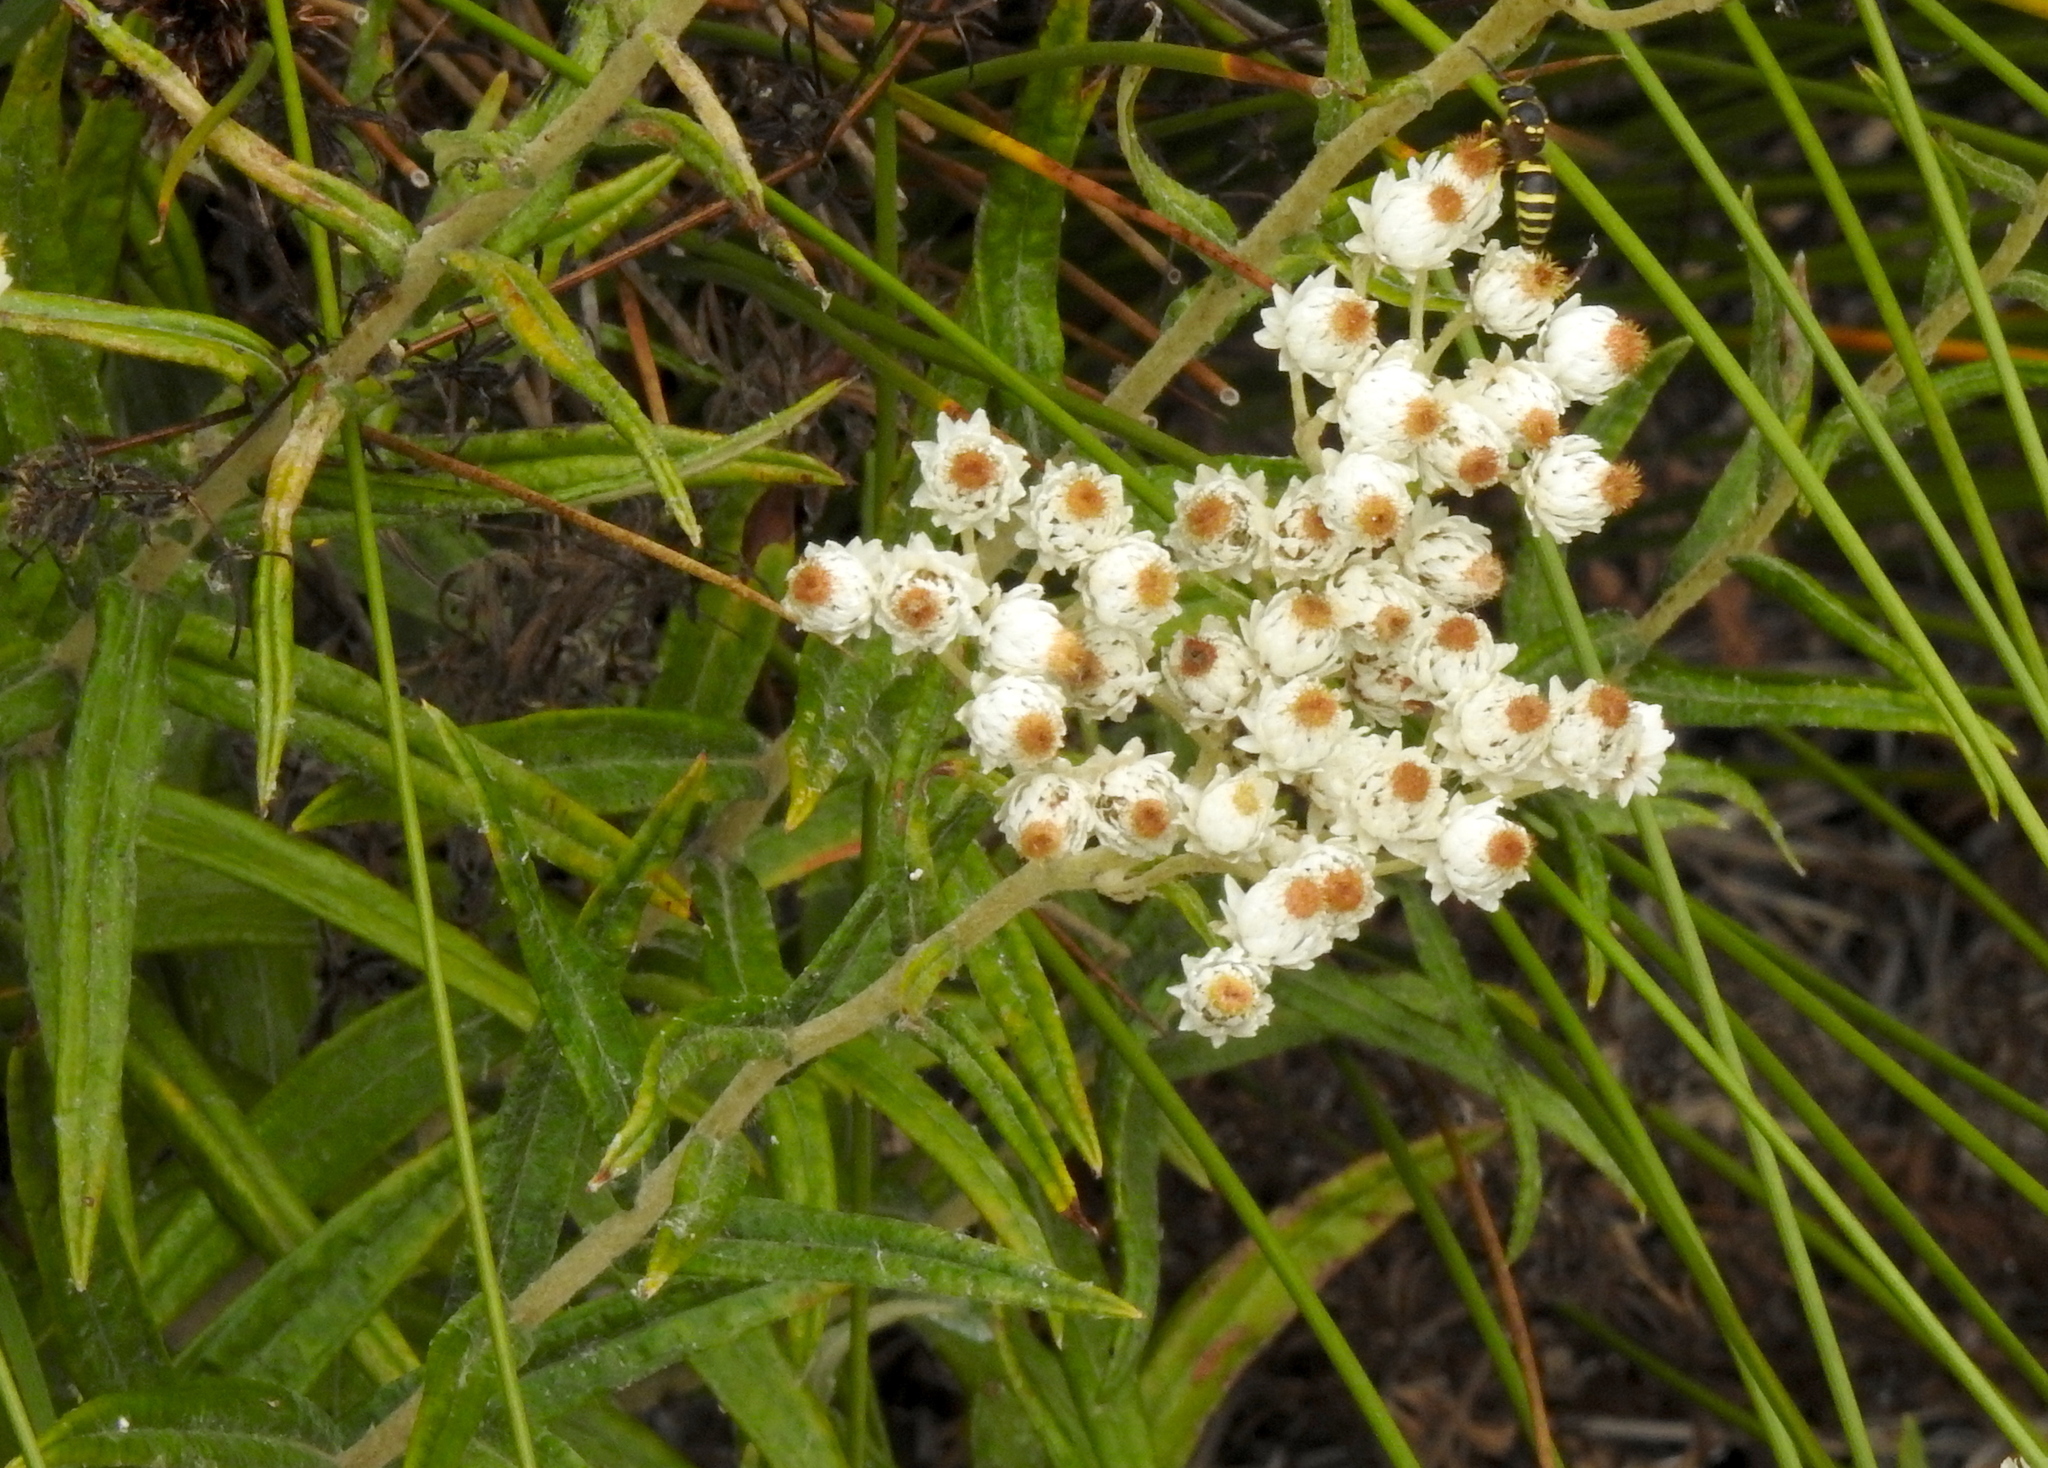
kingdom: Plantae
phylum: Tracheophyta
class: Magnoliopsida
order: Asterales
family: Asteraceae
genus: Anaphalis
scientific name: Anaphalis margaritacea
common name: Pearly everlasting
